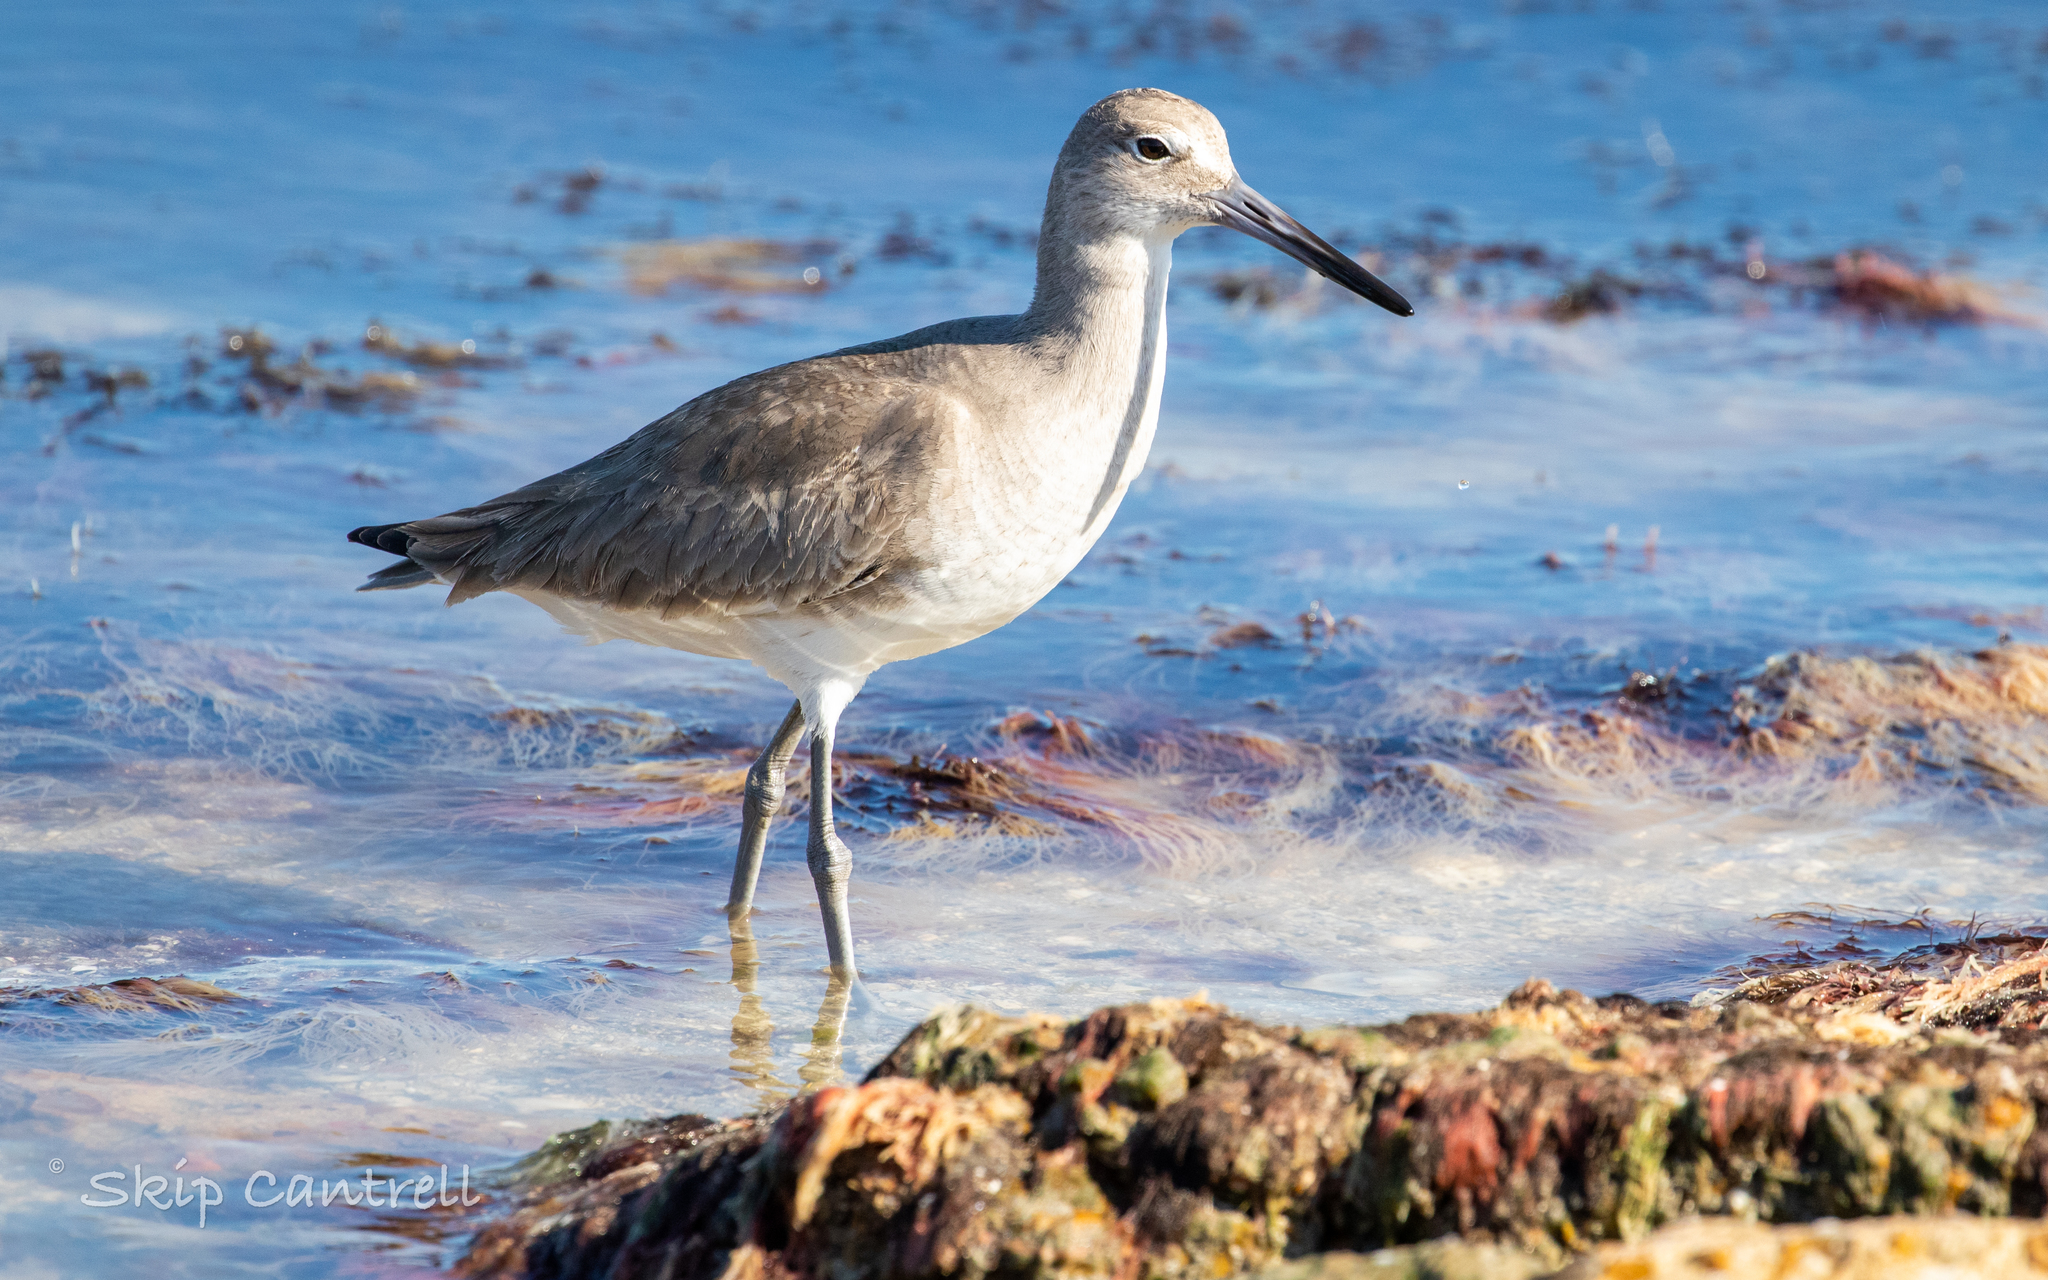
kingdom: Animalia
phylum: Chordata
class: Aves
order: Charadriiformes
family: Scolopacidae
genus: Tringa
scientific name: Tringa semipalmata
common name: Willet
